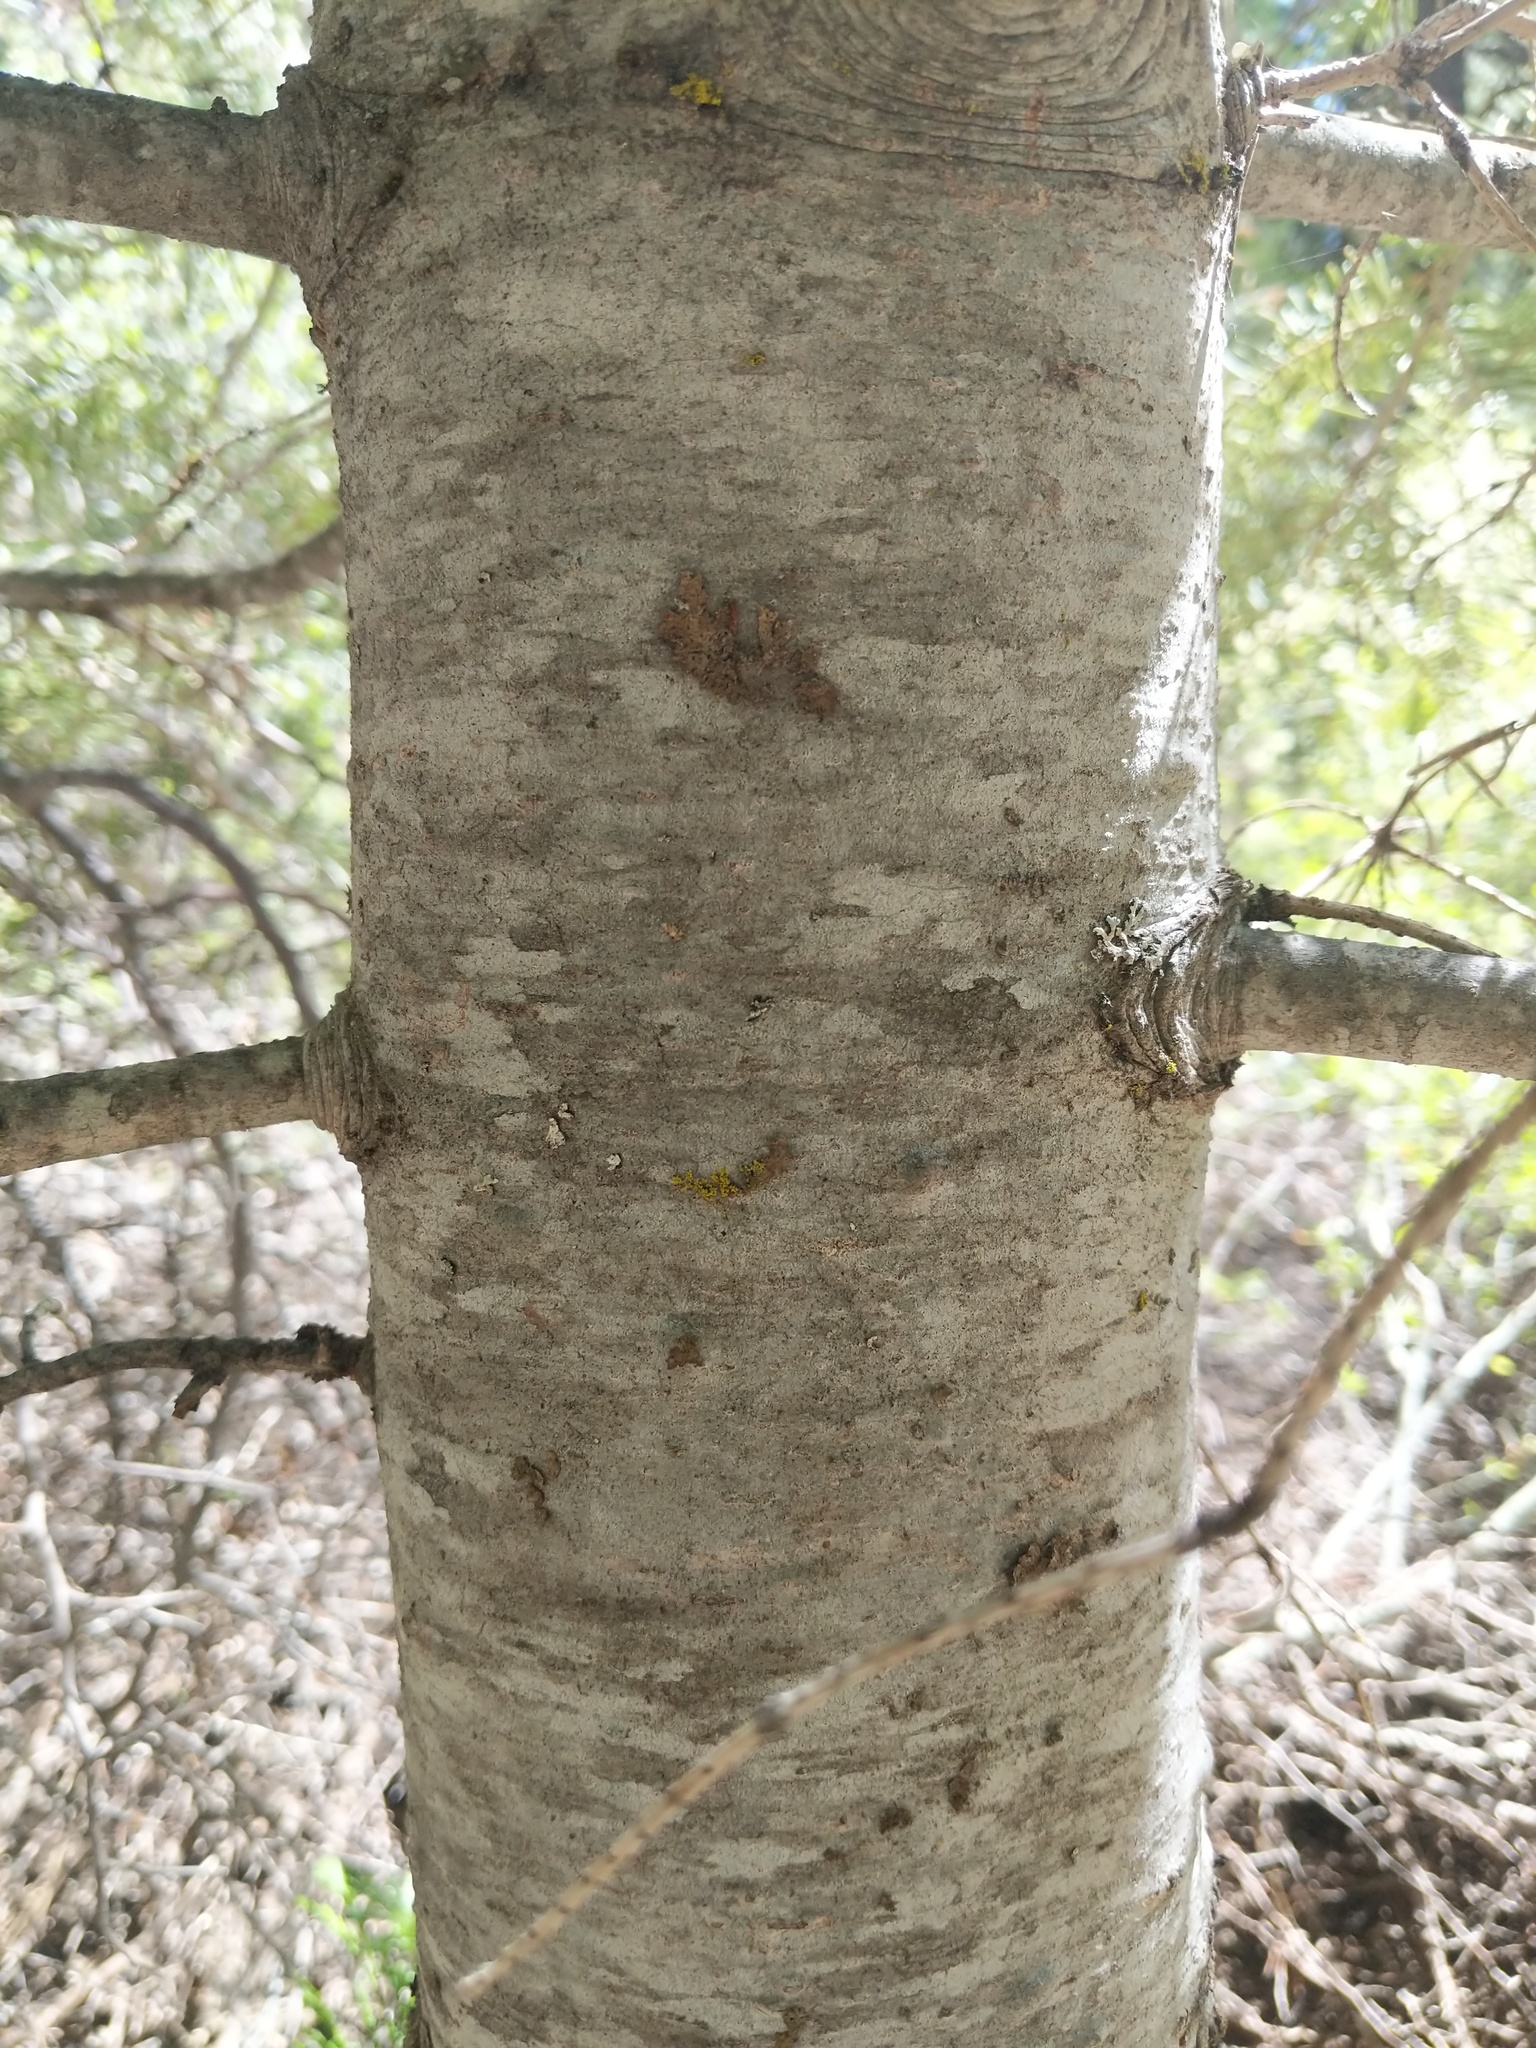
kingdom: Plantae
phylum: Tracheophyta
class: Pinopsida
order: Pinales
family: Pinaceae
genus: Abies
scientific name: Abies concolor
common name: Colorado fir
